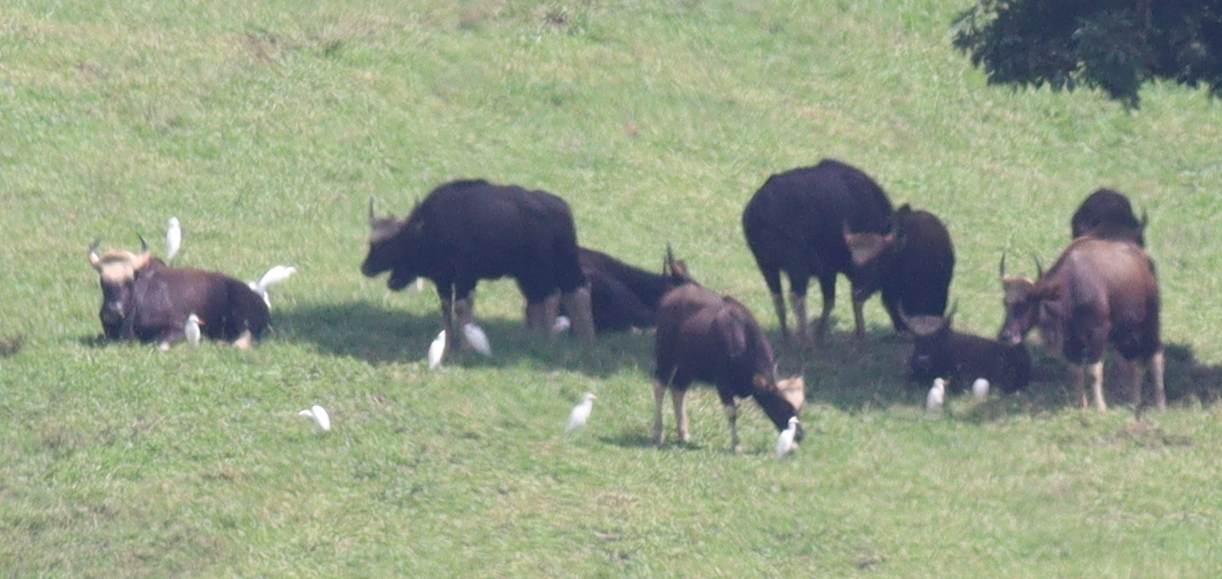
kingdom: Animalia
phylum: Chordata
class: Mammalia
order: Artiodactyla
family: Bovidae
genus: Bos
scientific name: Bos frontalis
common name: Gaur
